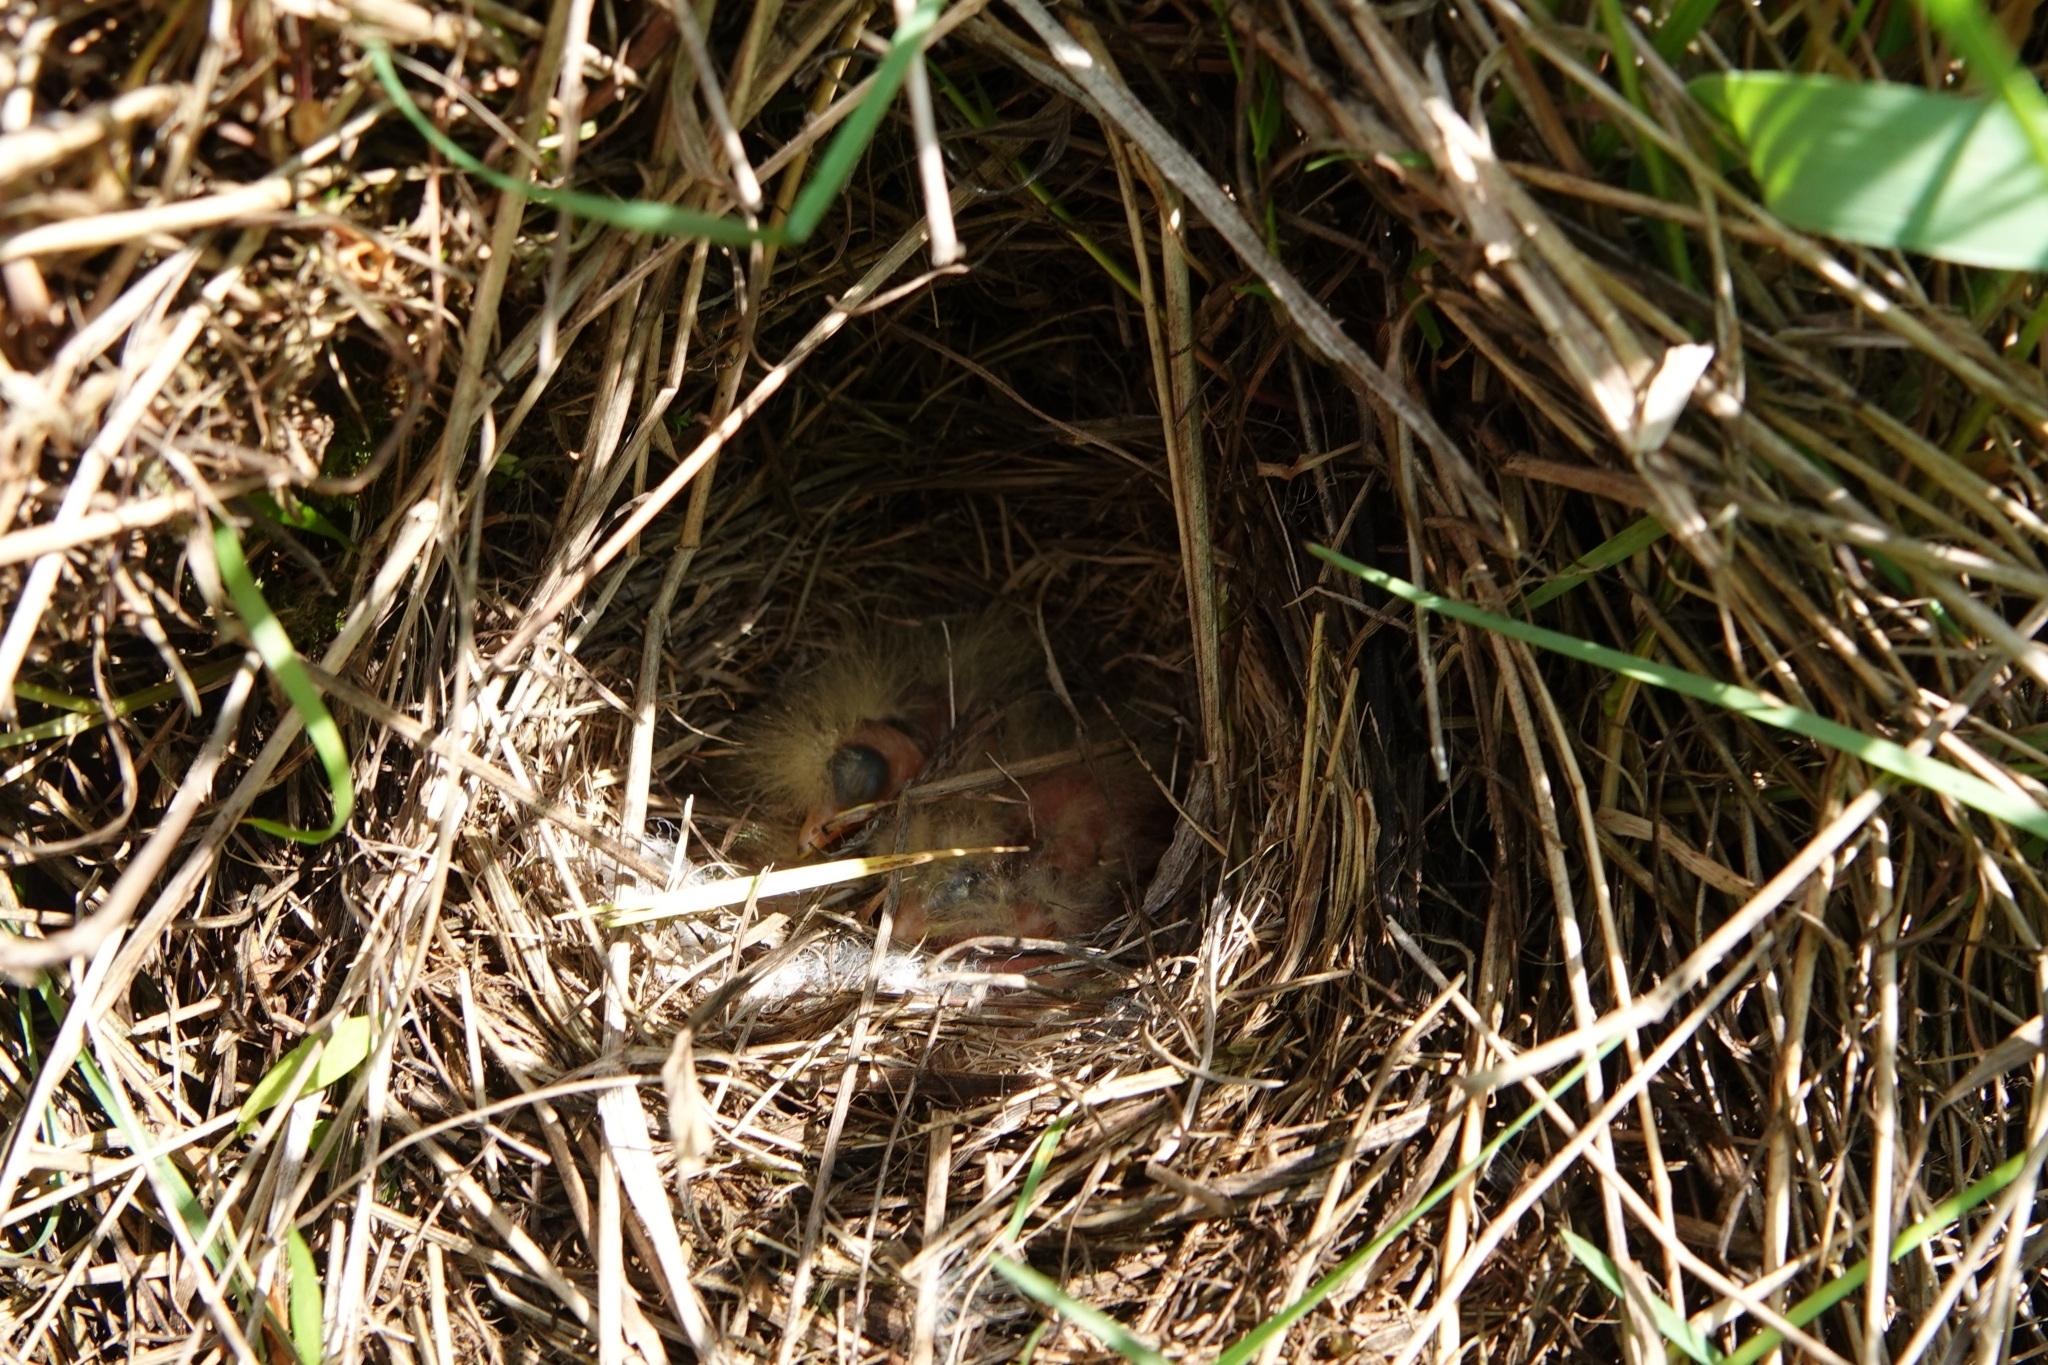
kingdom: Animalia
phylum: Chordata
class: Aves
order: Passeriformes
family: Motacillidae
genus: Motacilla
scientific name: Motacilla flava
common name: Western yellow wagtail
